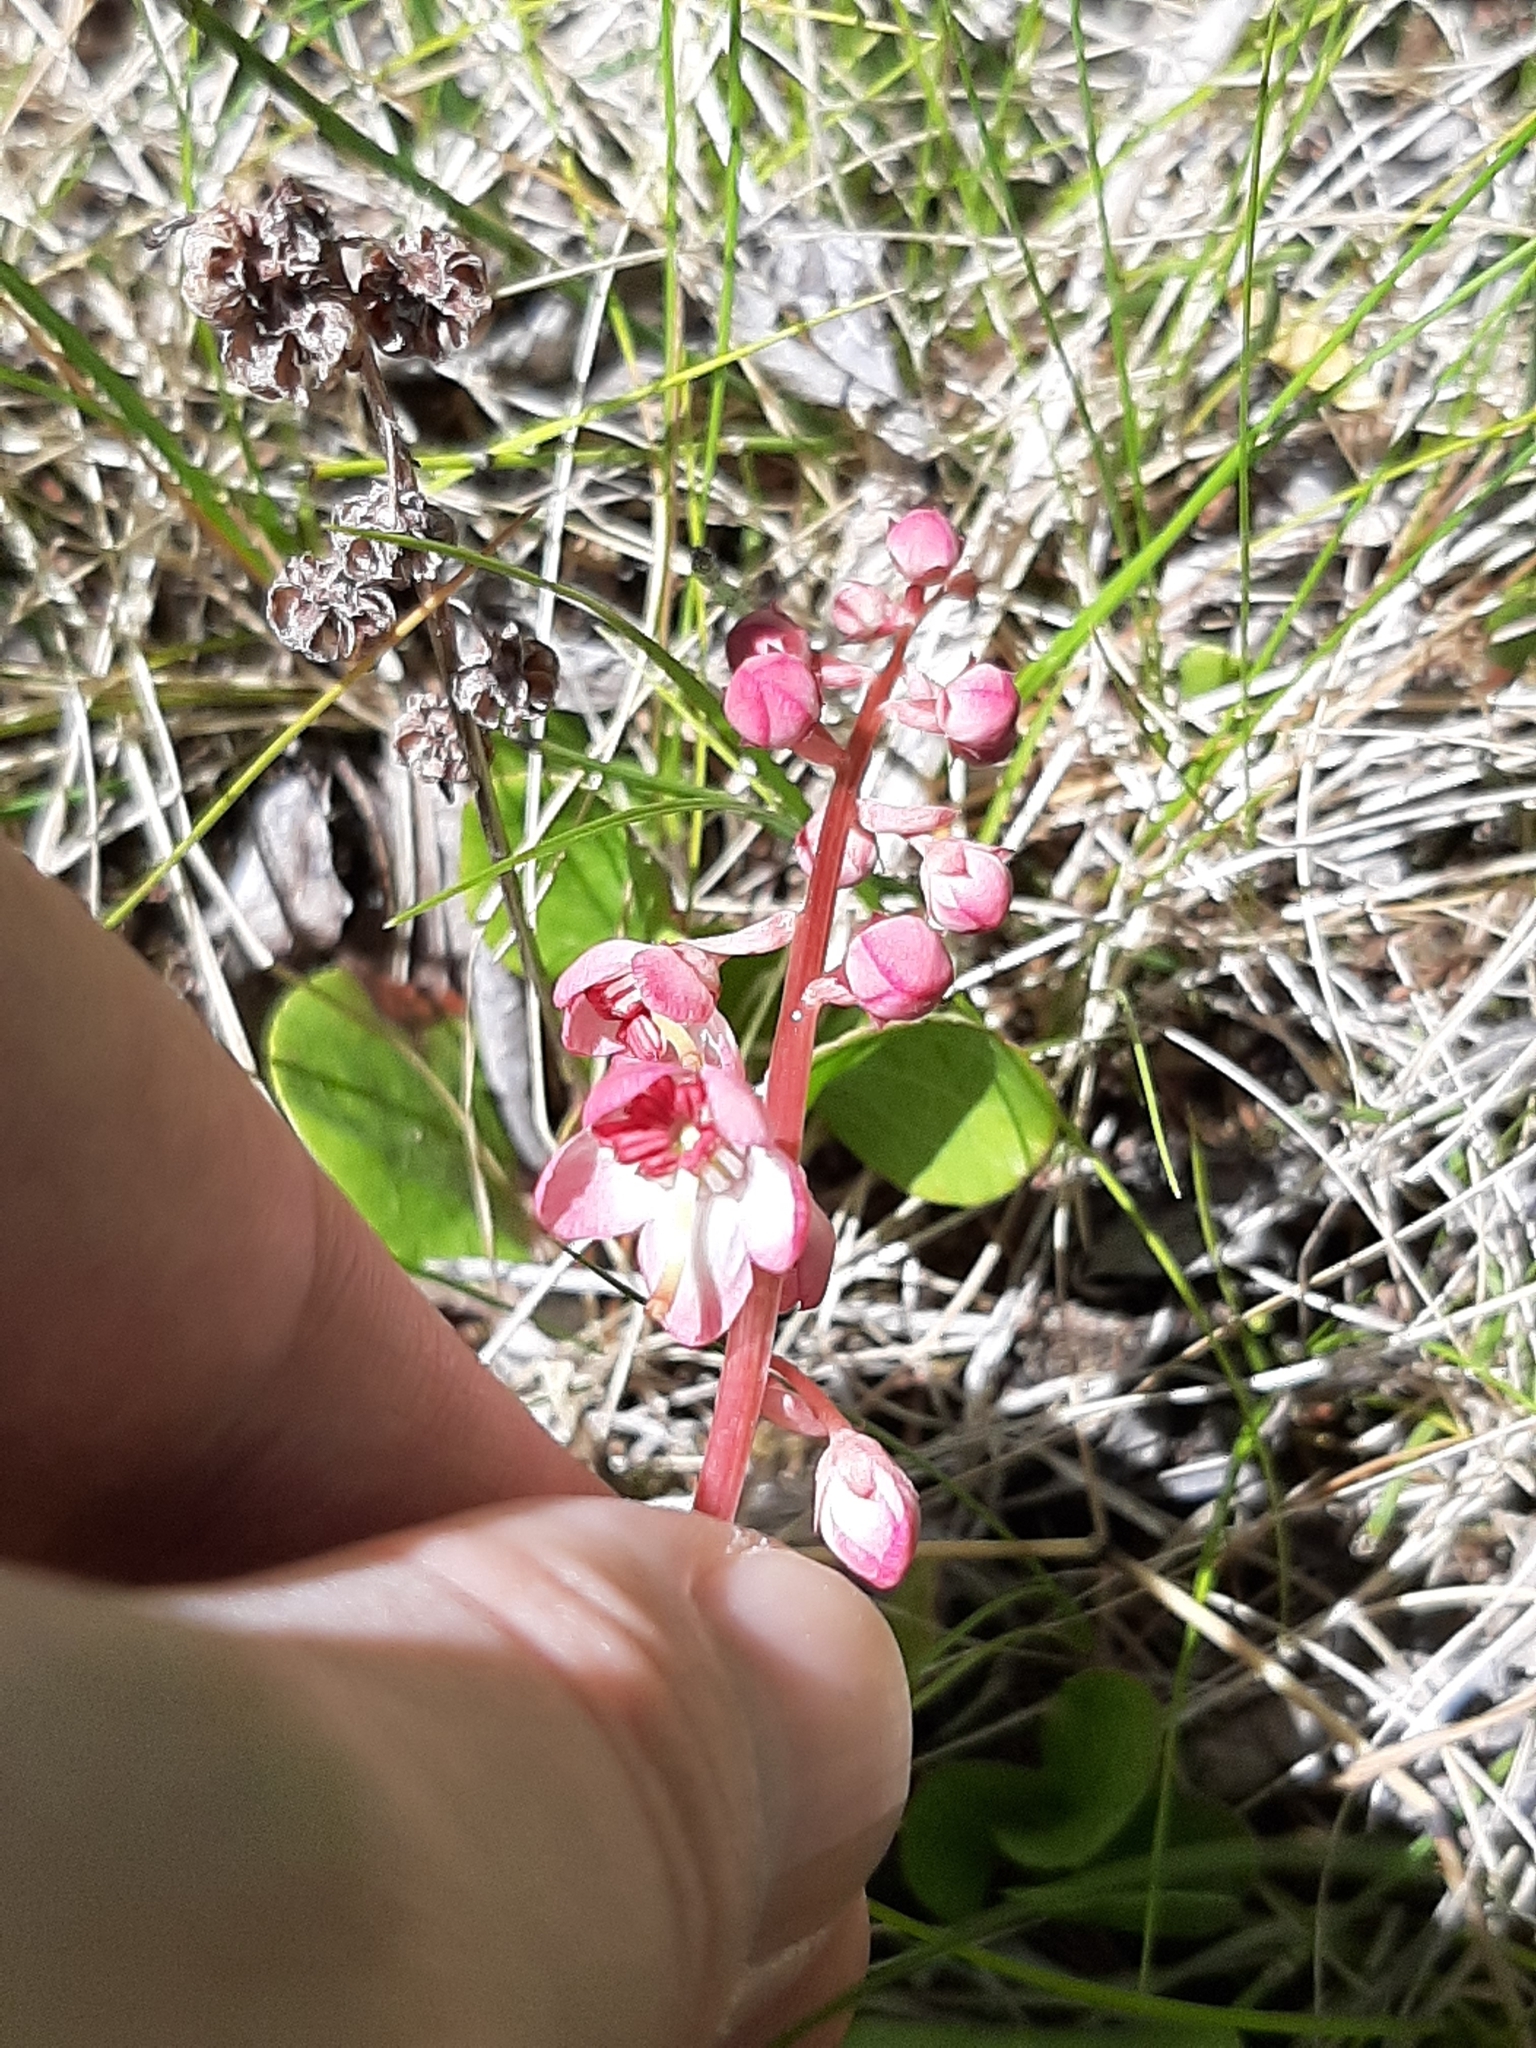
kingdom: Plantae
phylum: Tracheophyta
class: Magnoliopsida
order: Ericales
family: Ericaceae
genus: Pyrola
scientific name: Pyrola asarifolia
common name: Bog wintergreen
